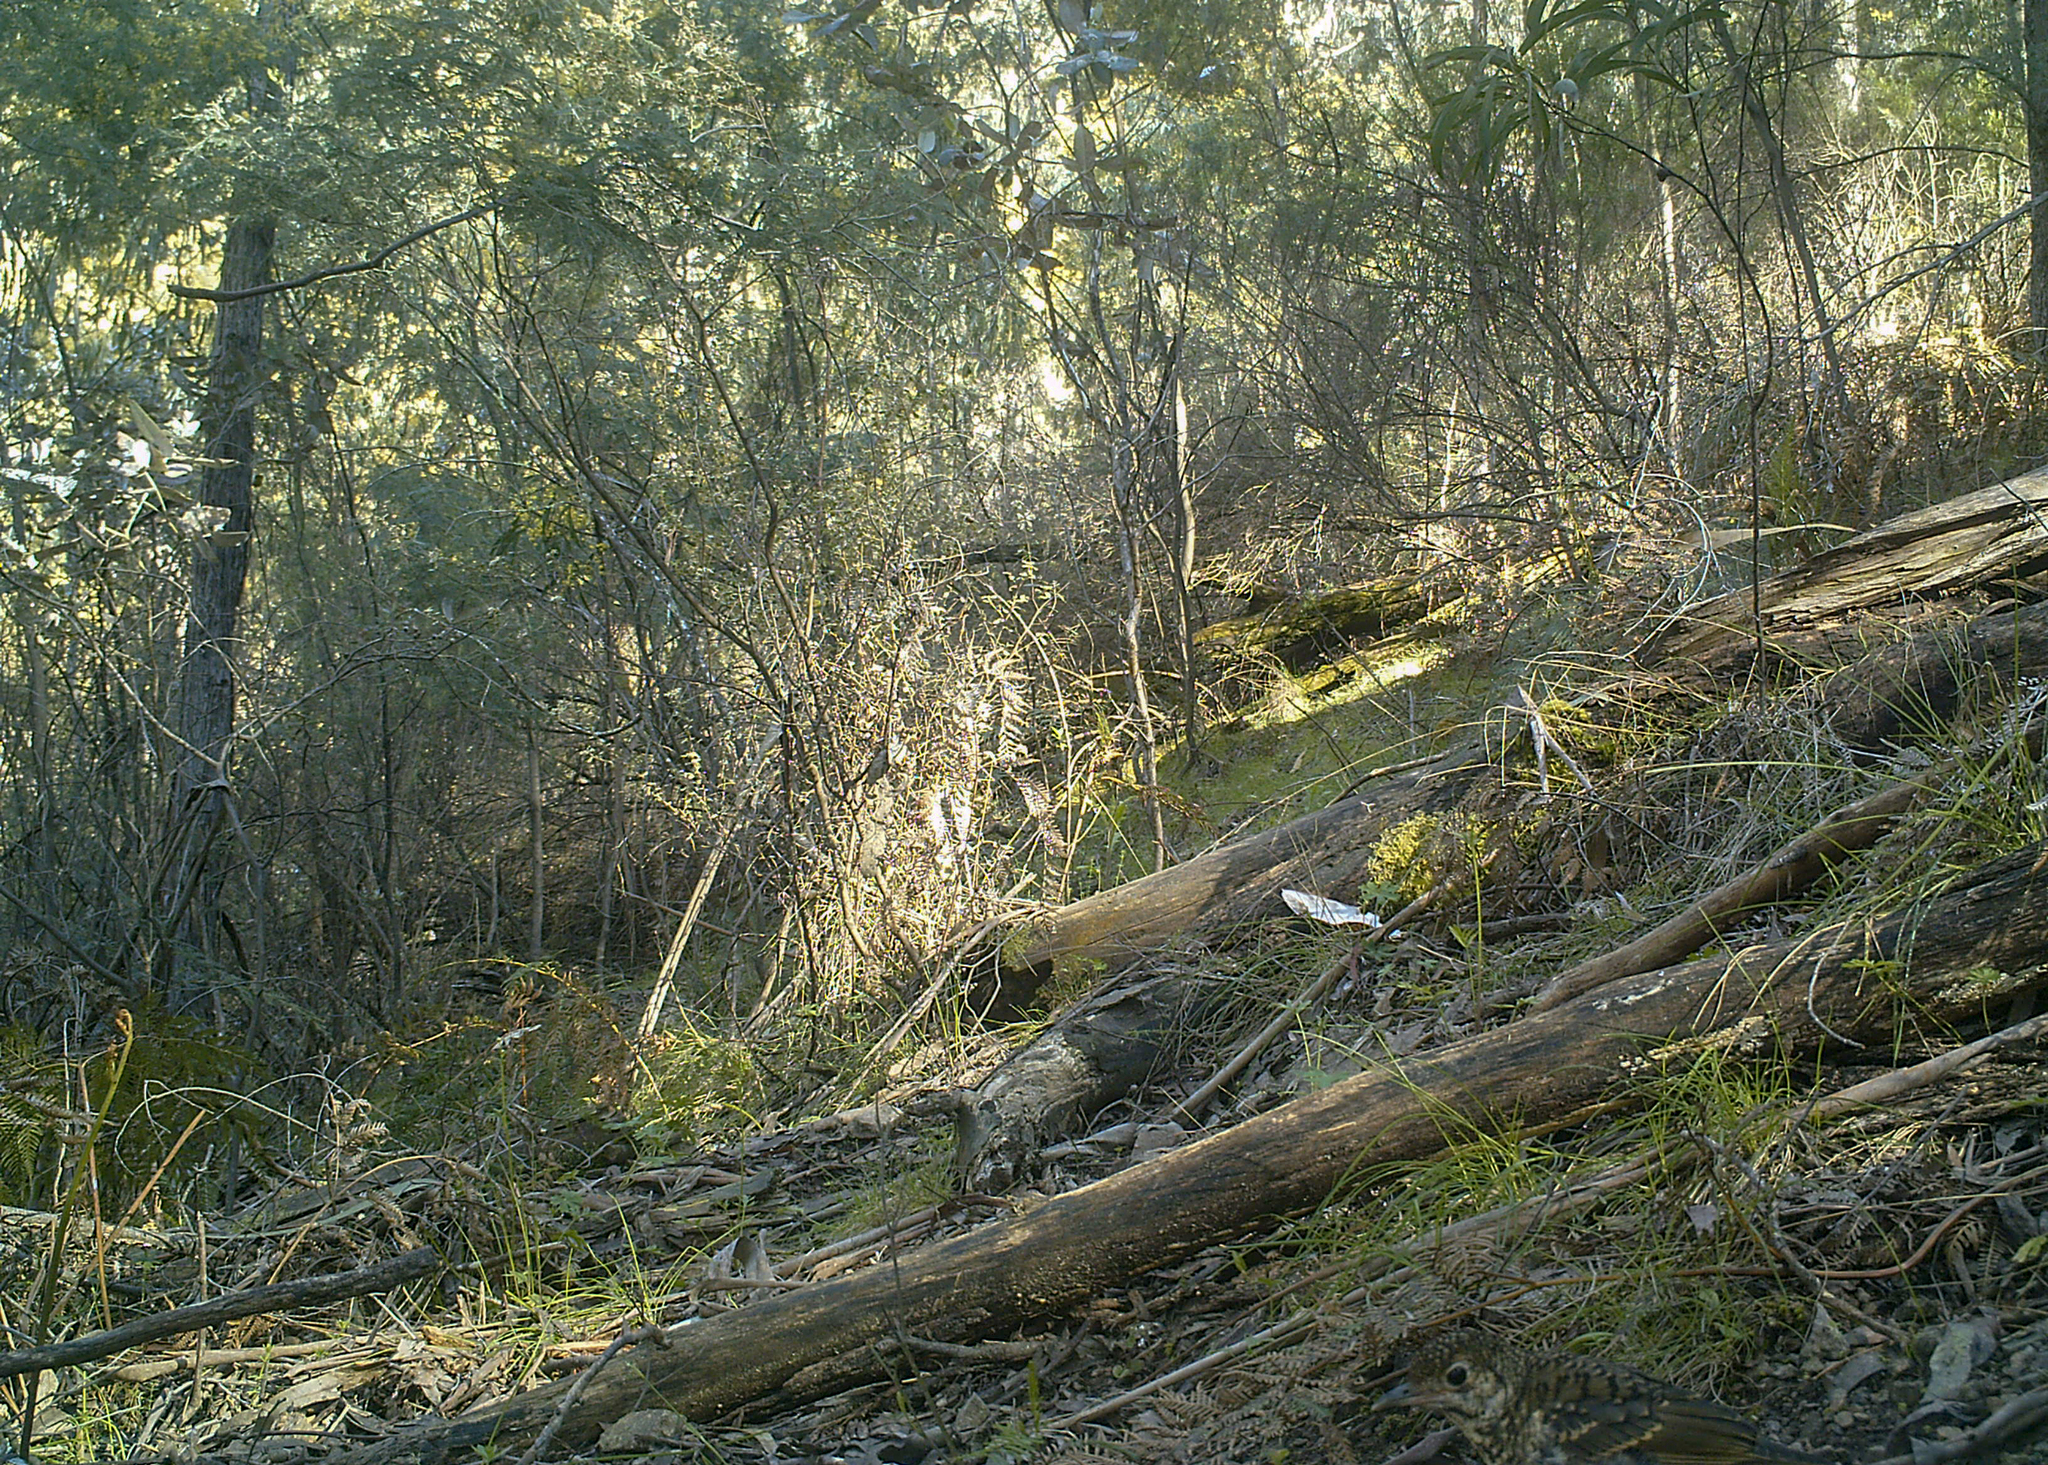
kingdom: Animalia
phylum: Chordata
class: Aves
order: Passeriformes
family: Turdidae
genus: Zoothera
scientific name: Zoothera lunulata
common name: Bassian thrush
